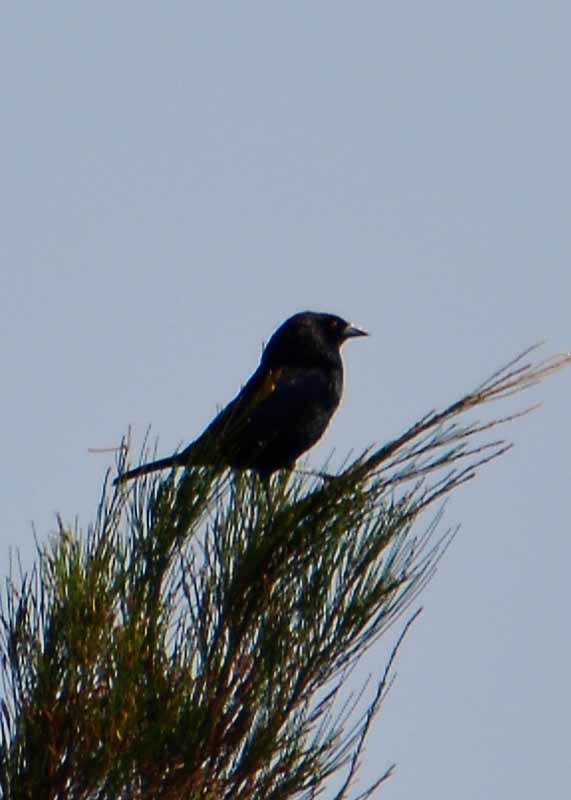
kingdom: Animalia
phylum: Chordata
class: Aves
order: Passeriformes
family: Icteridae
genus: Molothrus
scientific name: Molothrus aeneus
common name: Bronzed cowbird
